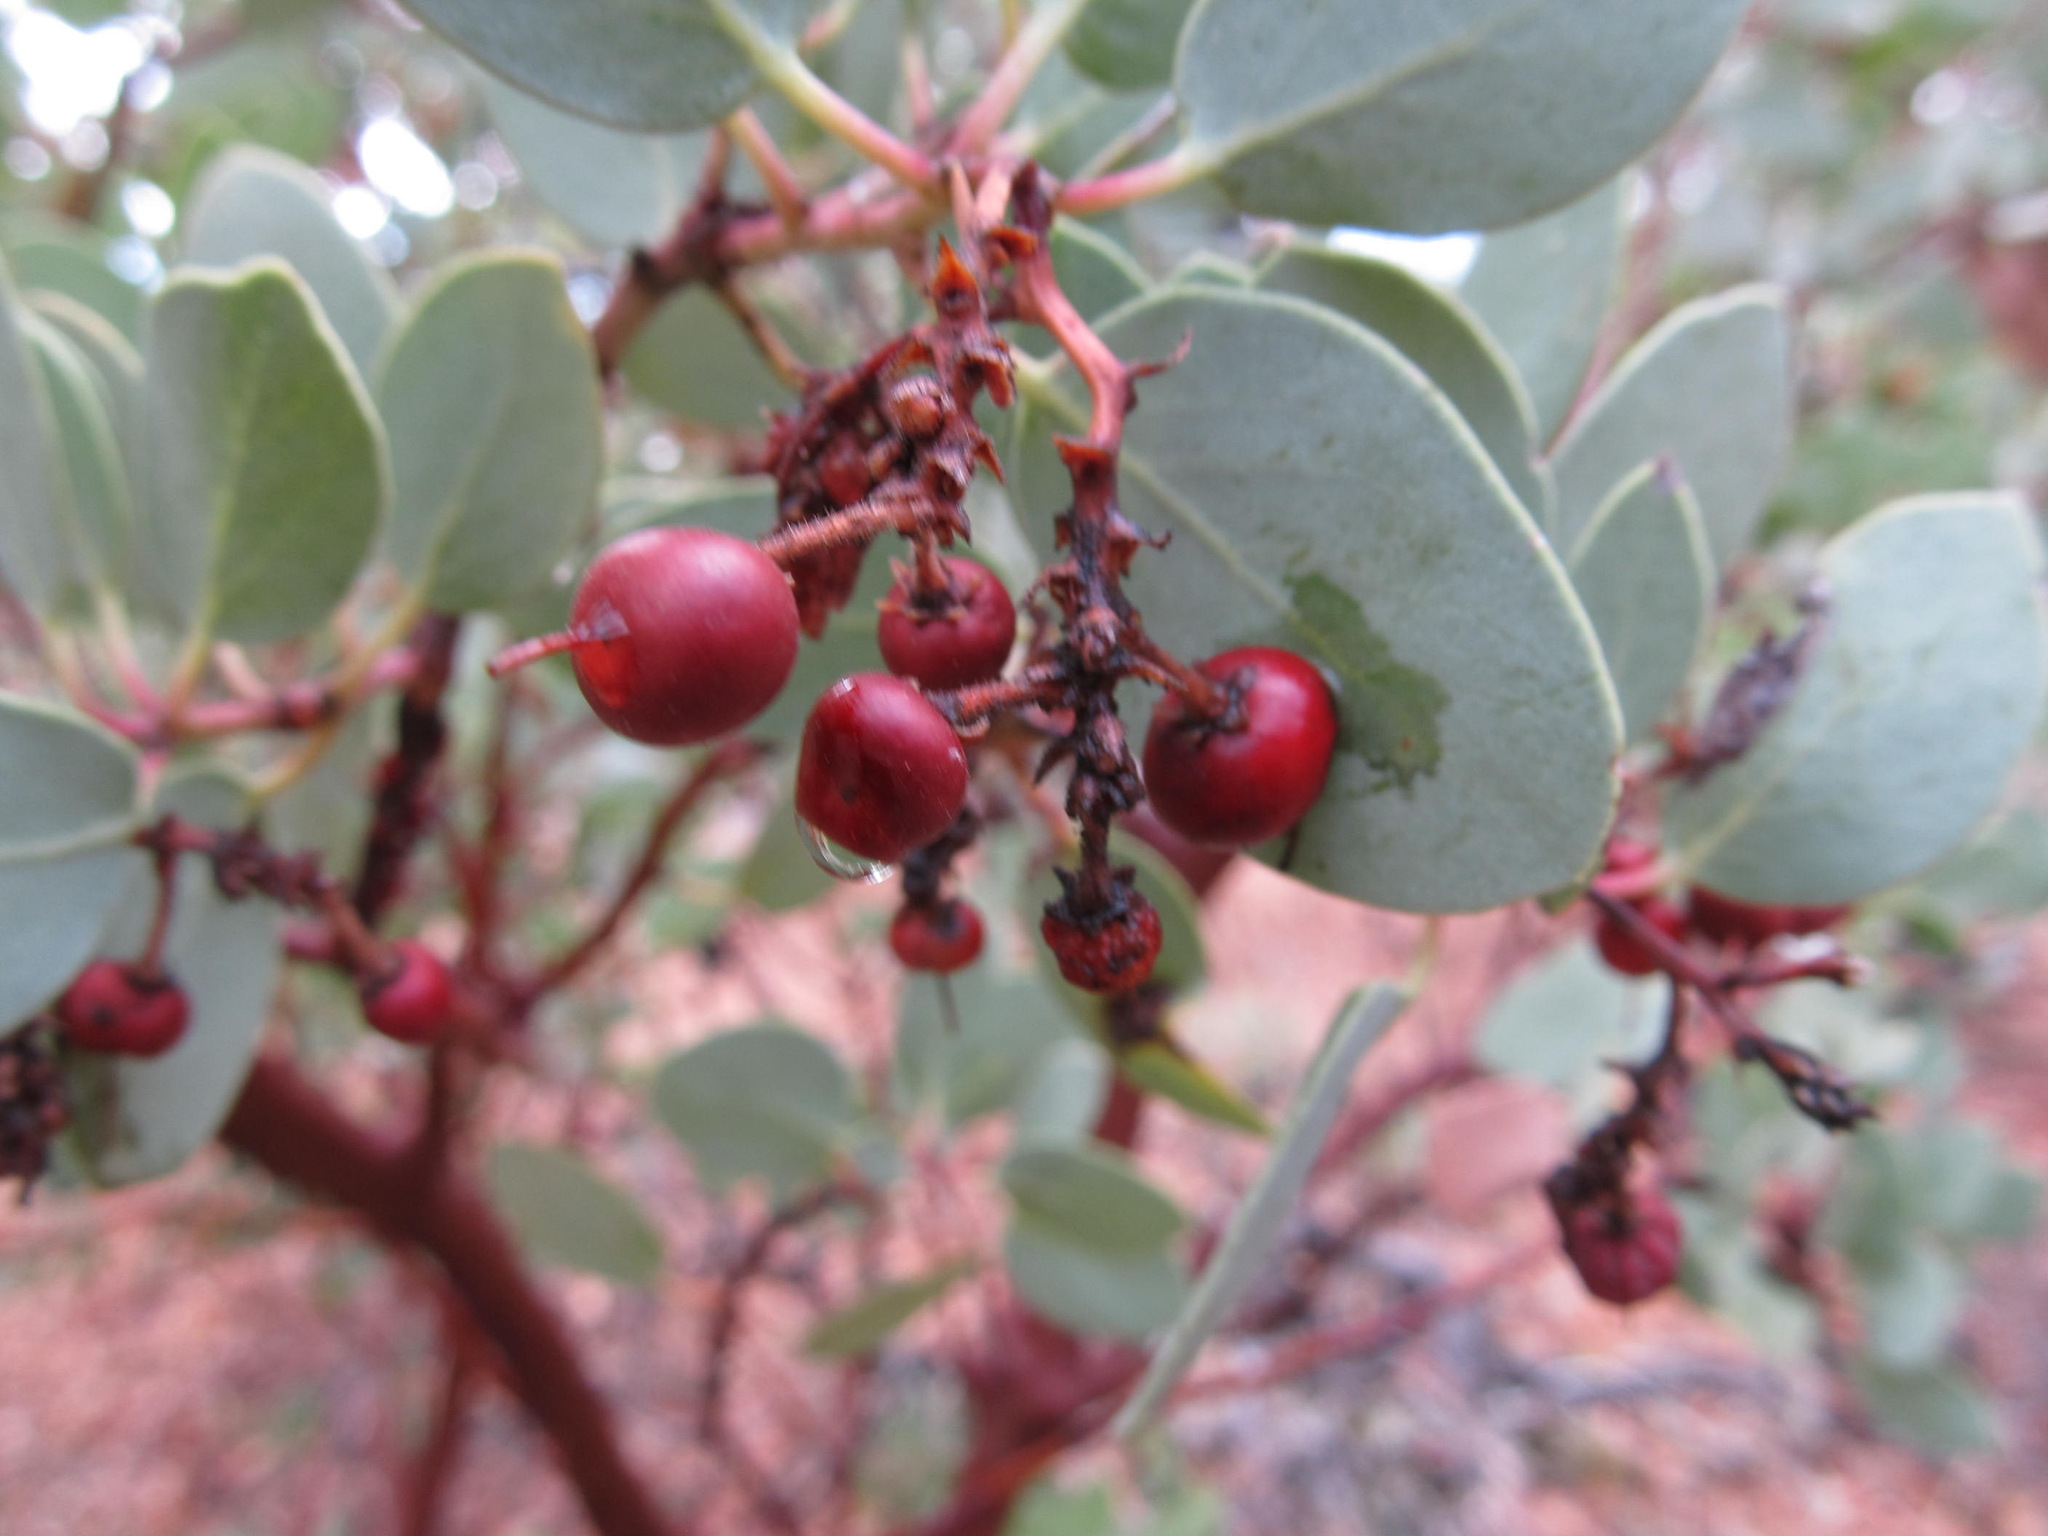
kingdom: Plantae
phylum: Tracheophyta
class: Magnoliopsida
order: Ericales
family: Ericaceae
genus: Arctostaphylos
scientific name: Arctostaphylos viscida
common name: White-leaf manzanita
